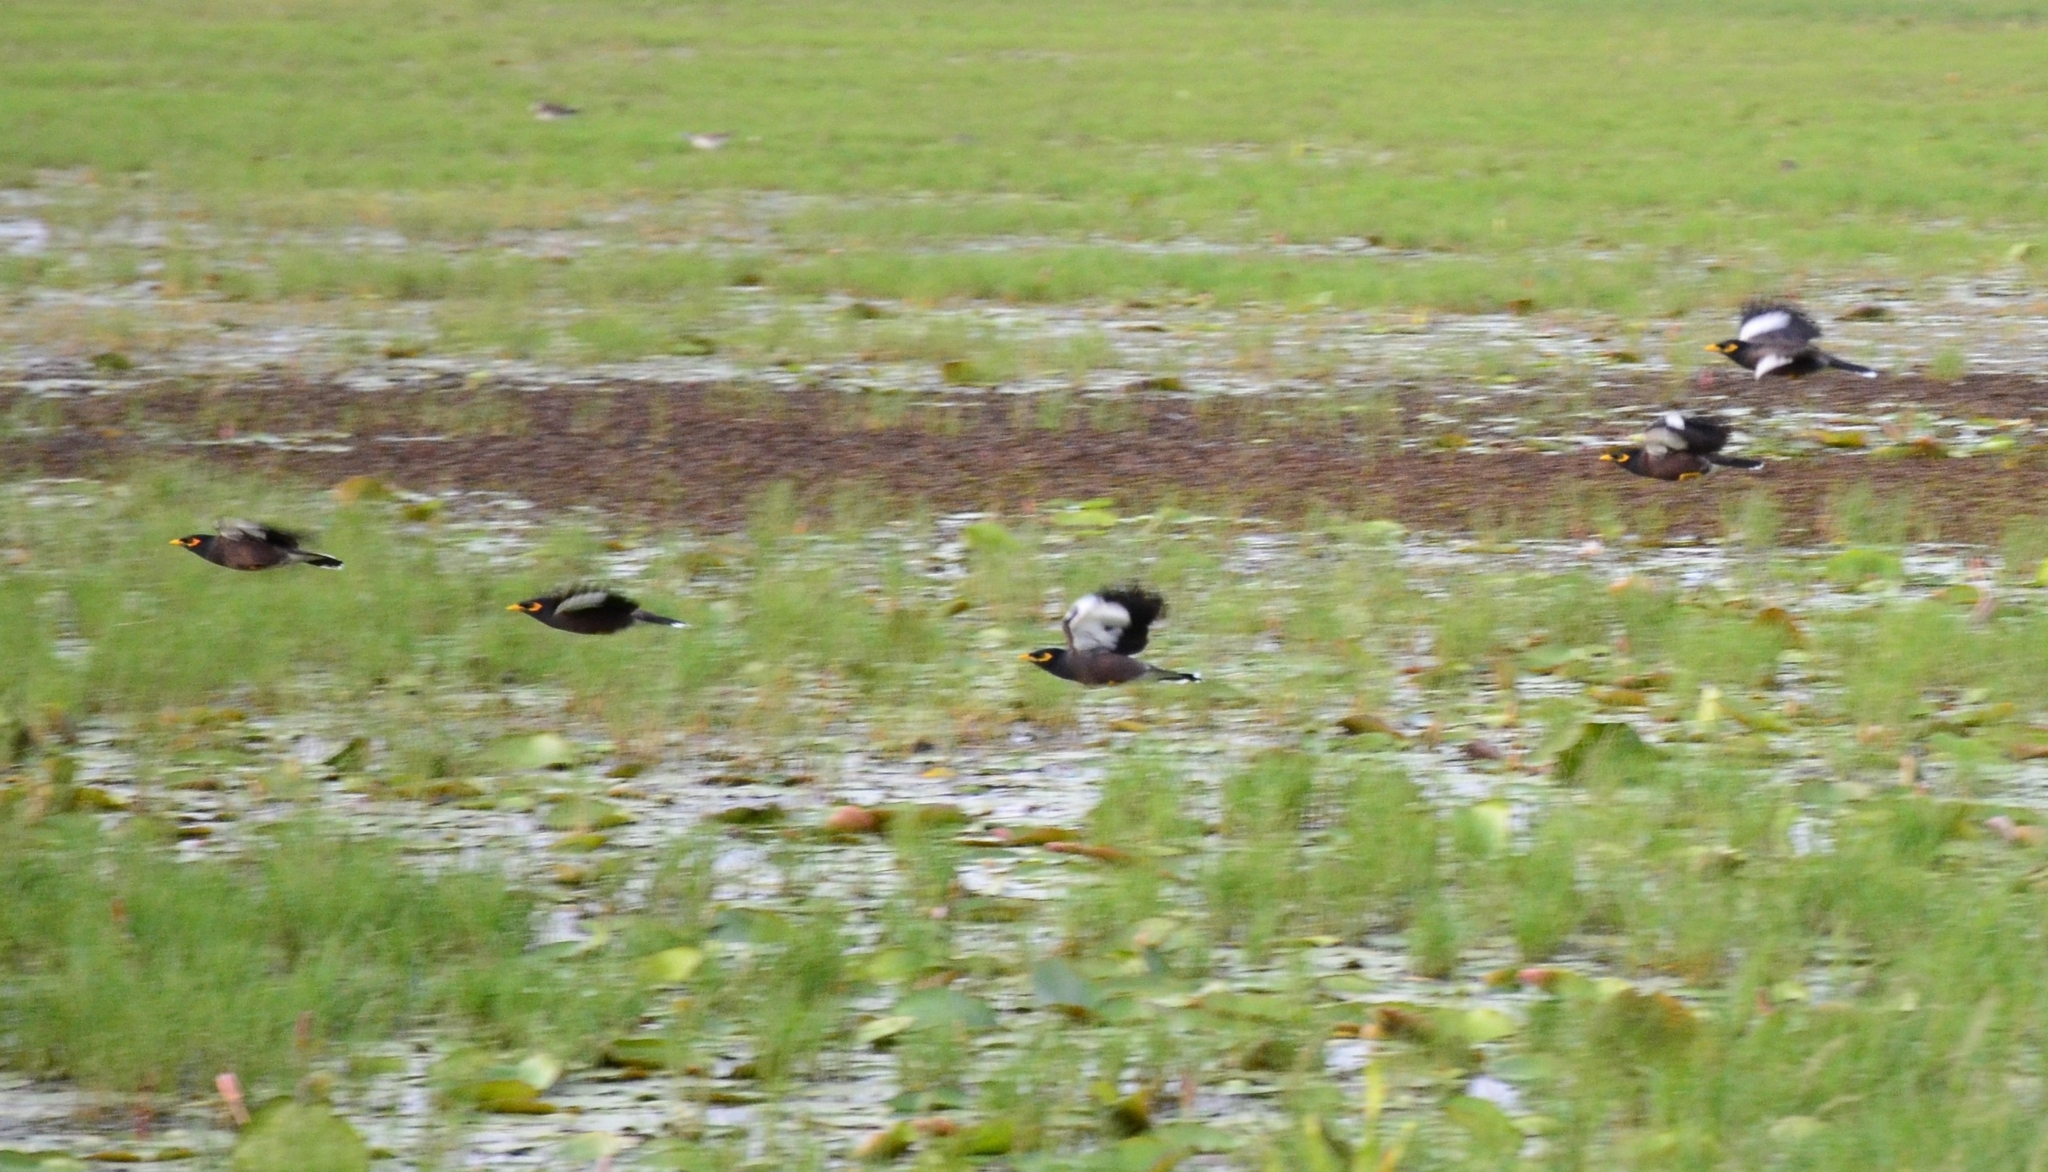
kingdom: Animalia
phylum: Chordata
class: Aves
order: Passeriformes
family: Sturnidae
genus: Acridotheres
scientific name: Acridotheres tristis
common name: Common myna
